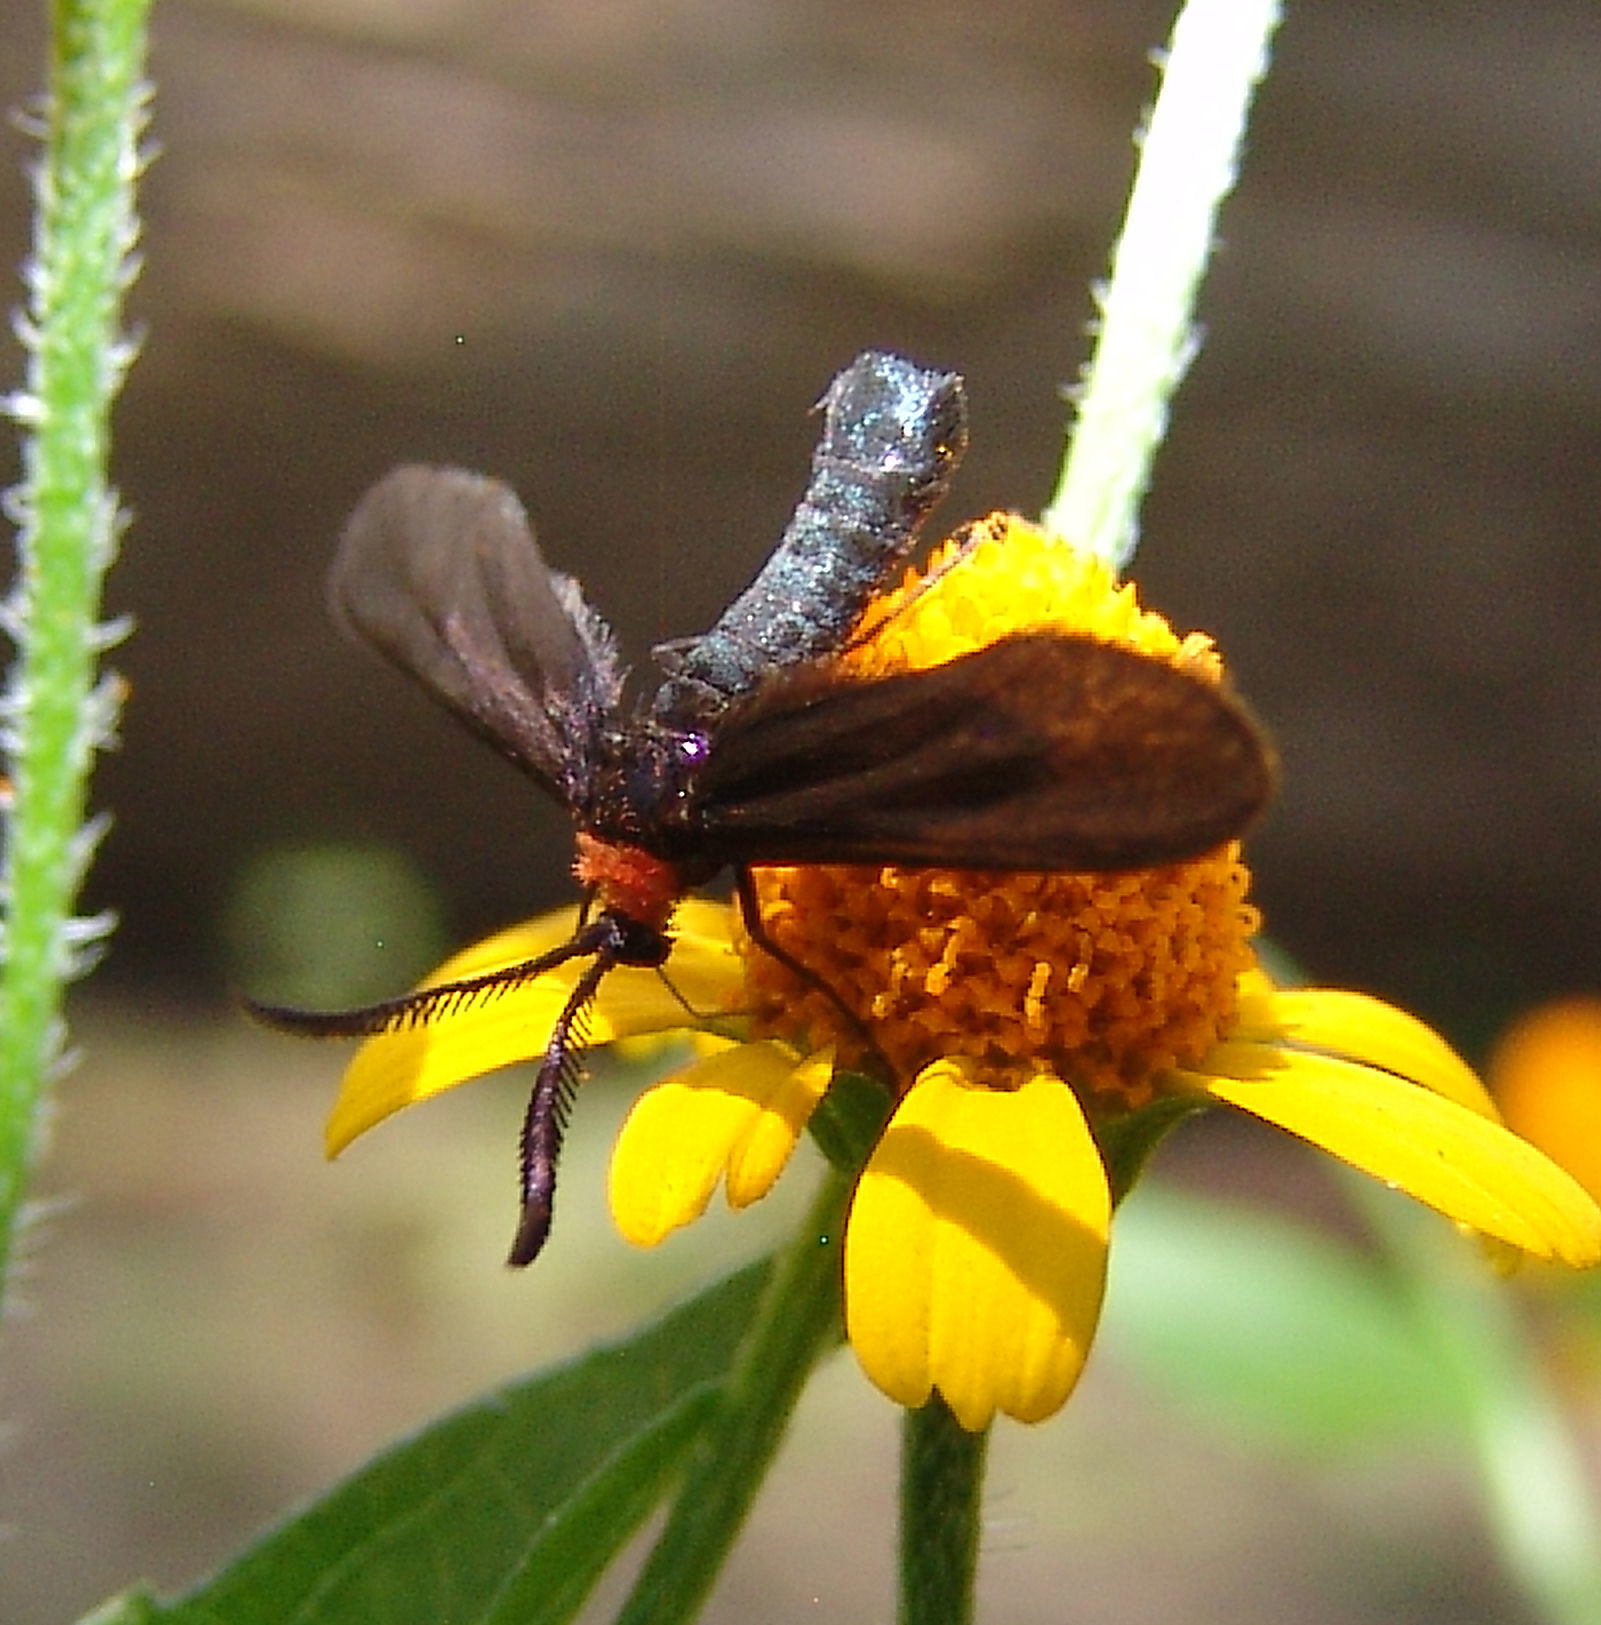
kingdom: Animalia
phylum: Arthropoda
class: Insecta
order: Lepidoptera
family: Zygaenidae
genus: Harrisina
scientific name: Harrisina americana
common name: Grapeleaf skeletonizer moth
